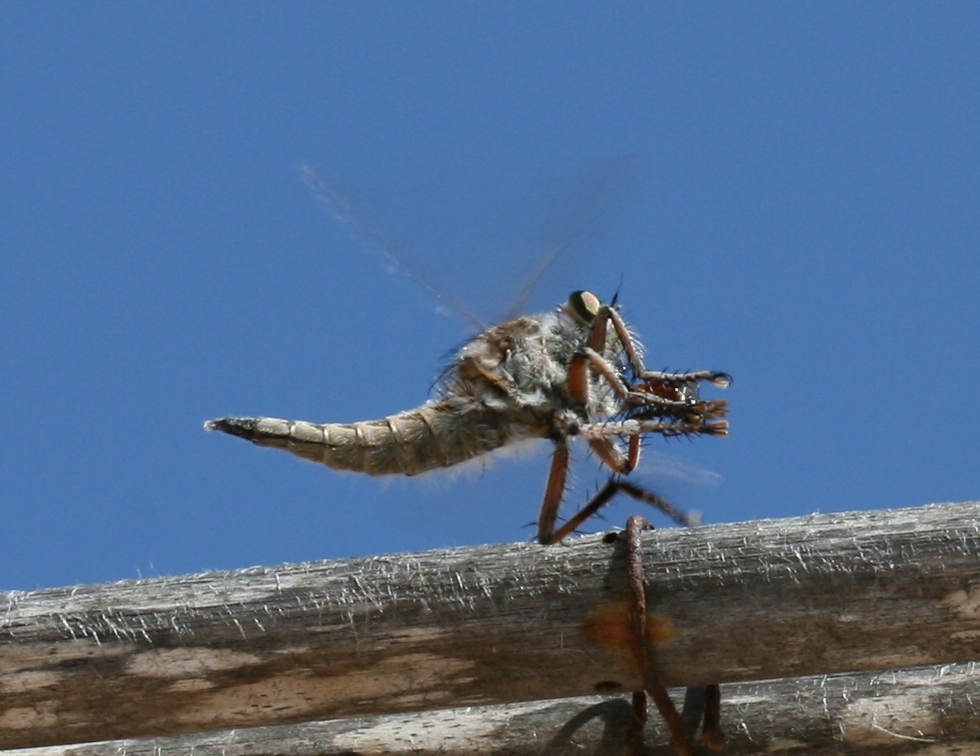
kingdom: Animalia
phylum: Arthropoda
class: Insecta
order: Diptera
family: Asilidae
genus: Promachus
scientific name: Promachus consanguineus
